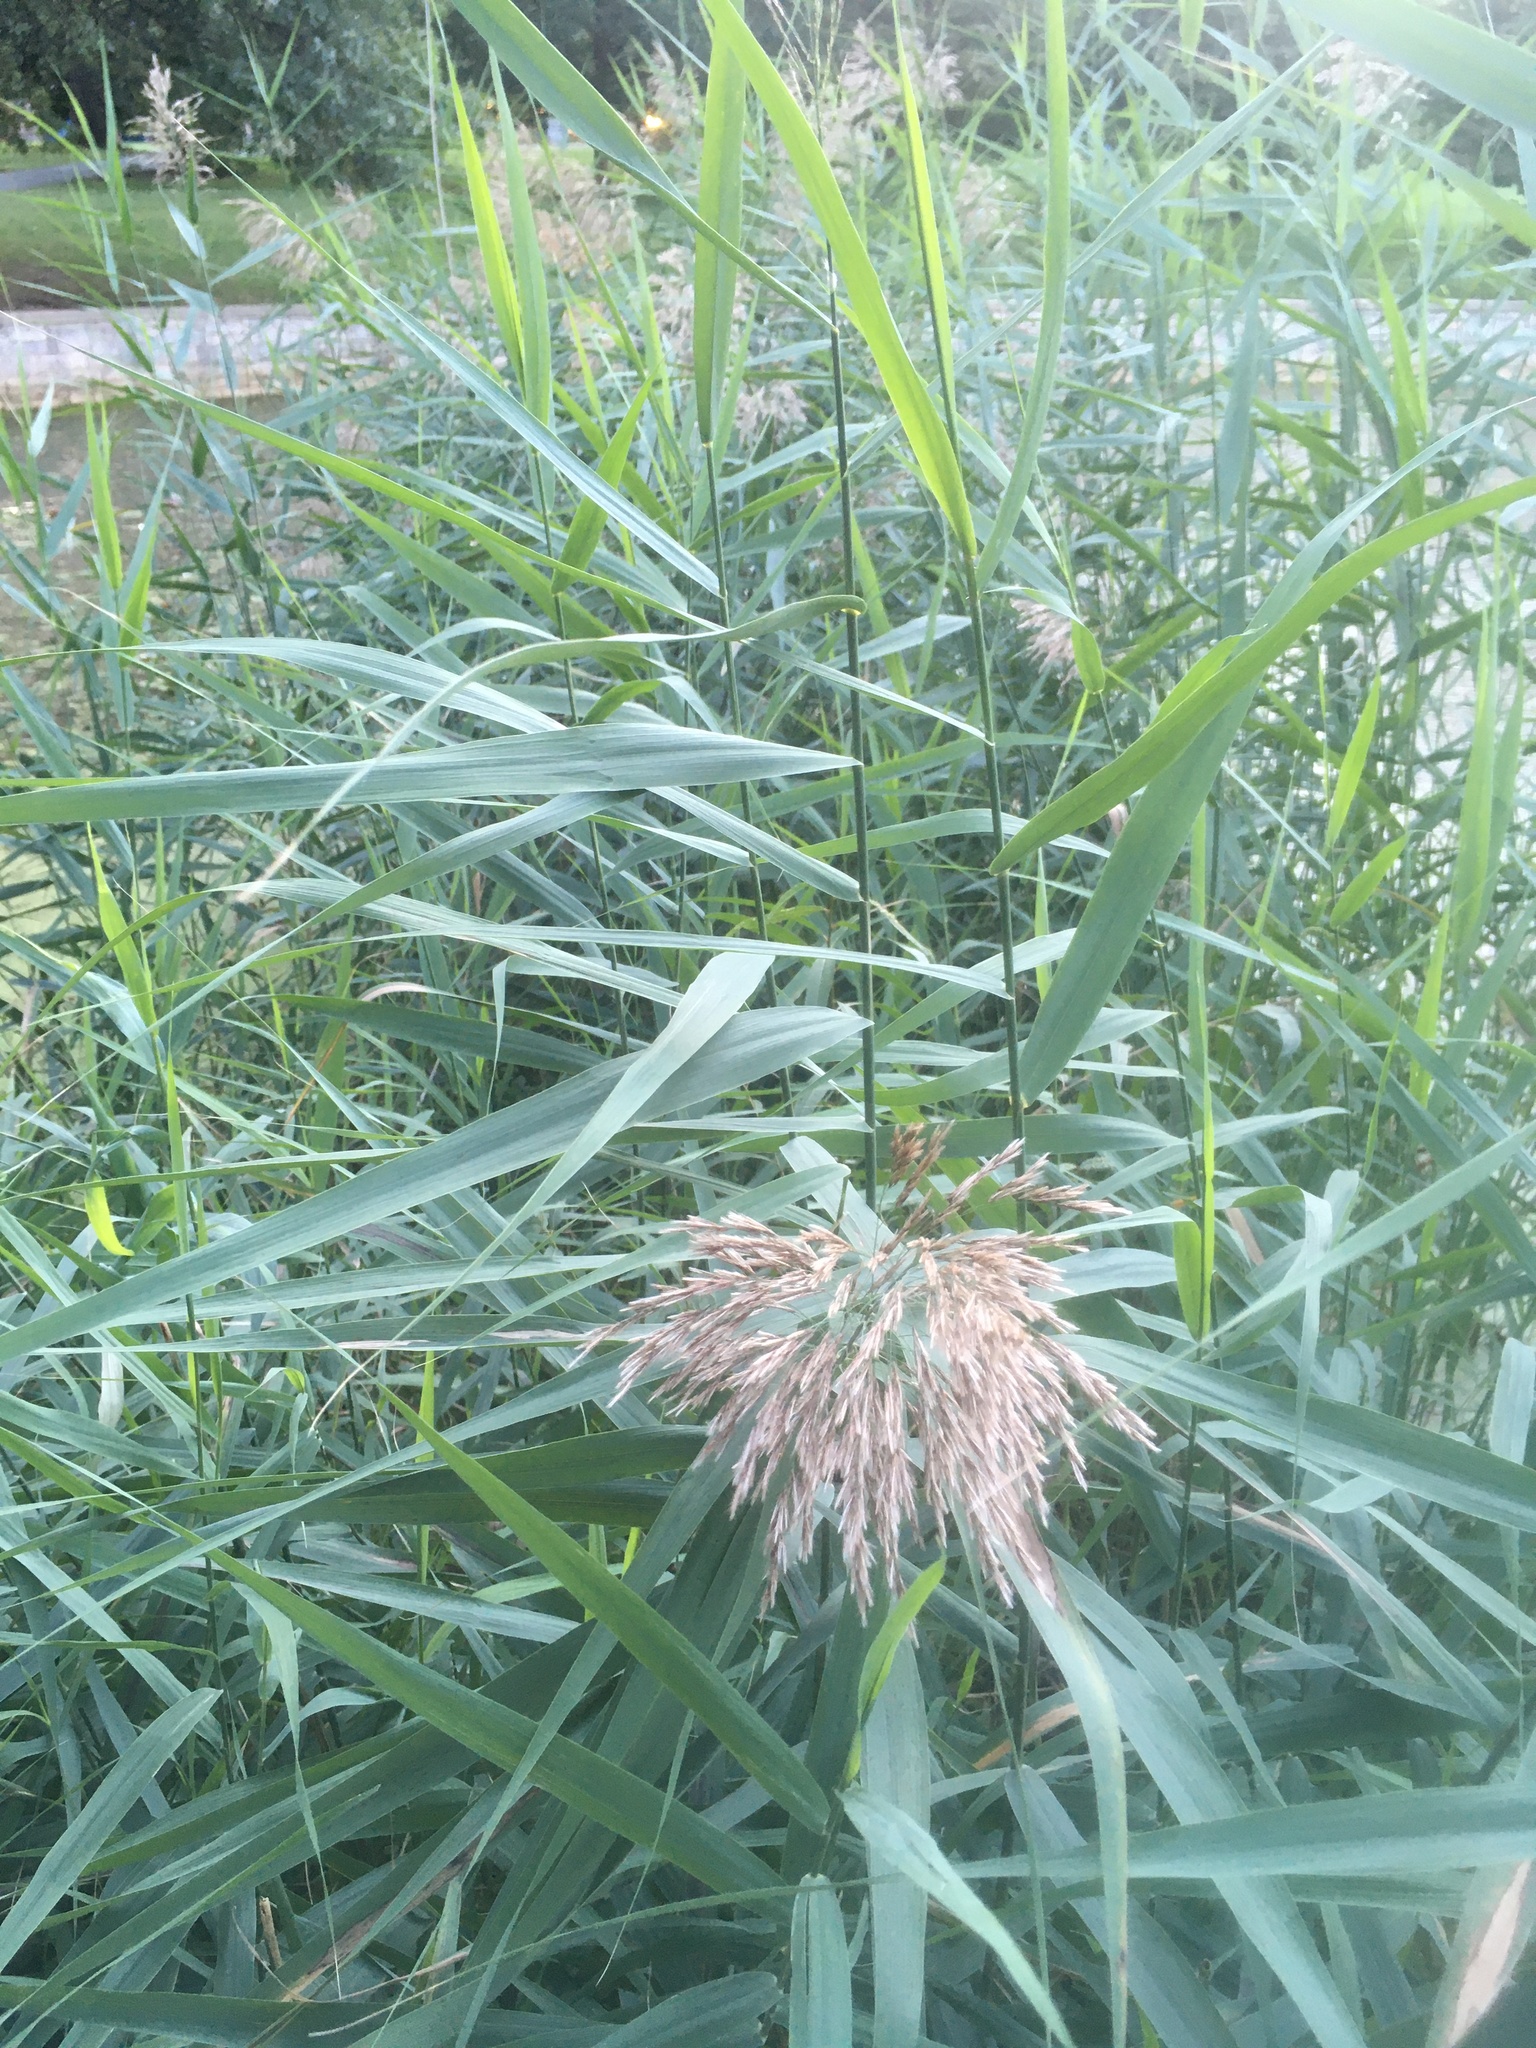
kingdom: Plantae
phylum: Tracheophyta
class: Liliopsida
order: Poales
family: Poaceae
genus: Phragmites
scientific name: Phragmites australis
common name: Common reed
